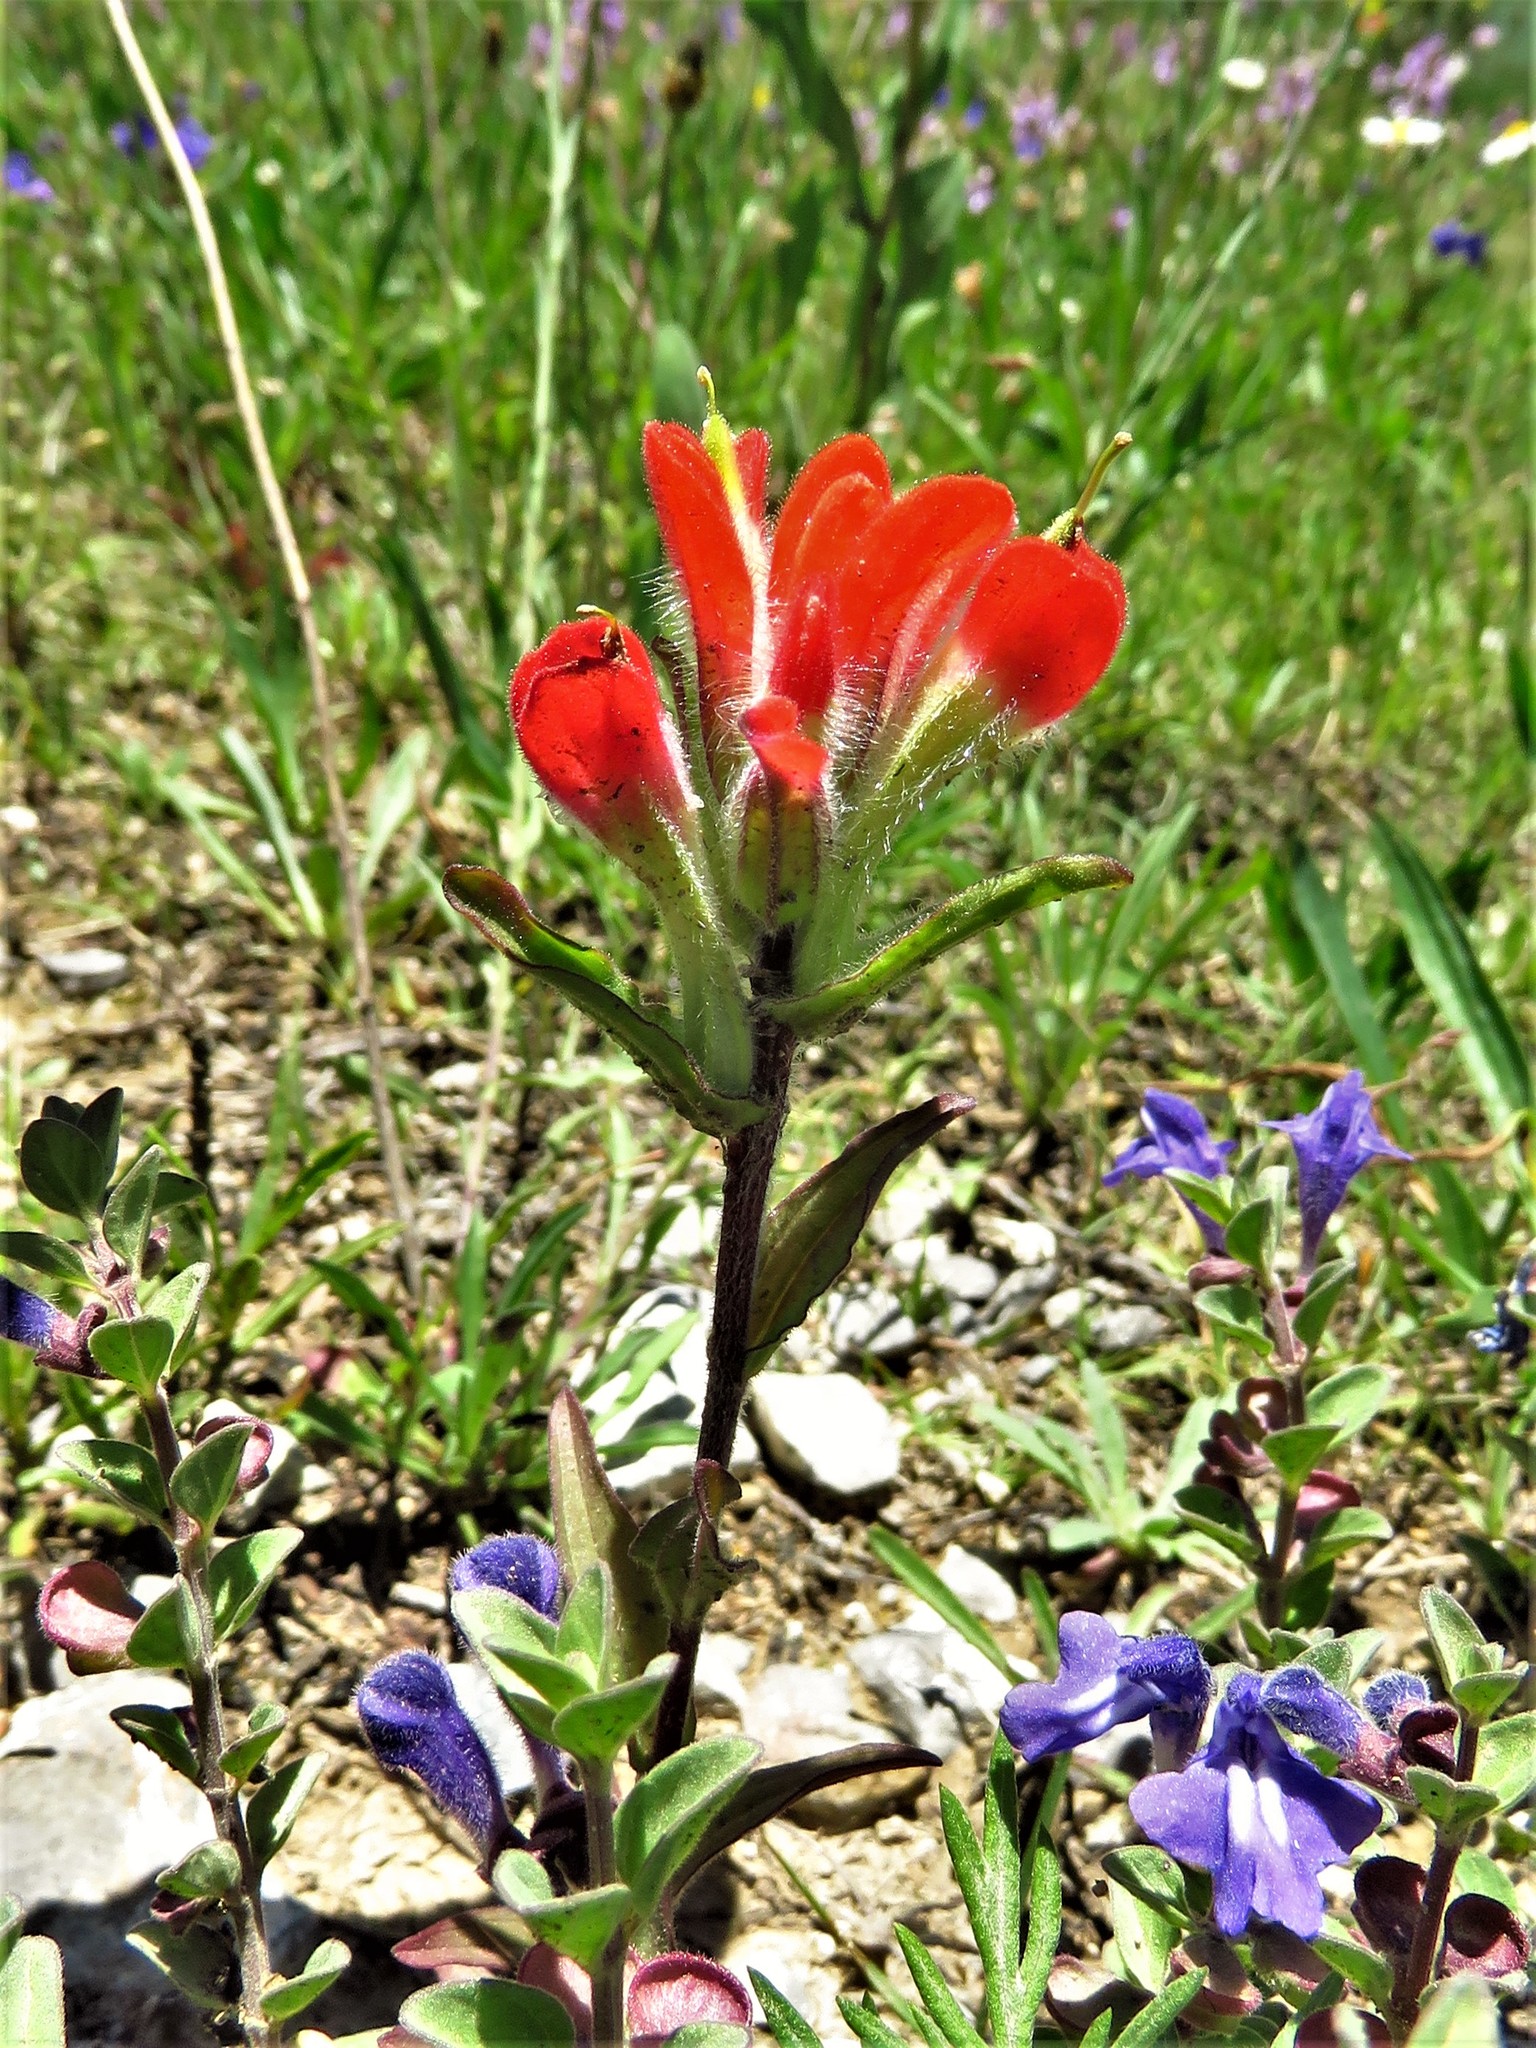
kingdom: Plantae
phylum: Tracheophyta
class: Magnoliopsida
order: Lamiales
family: Orobanchaceae
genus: Castilleja
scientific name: Castilleja scorzonerifolia
